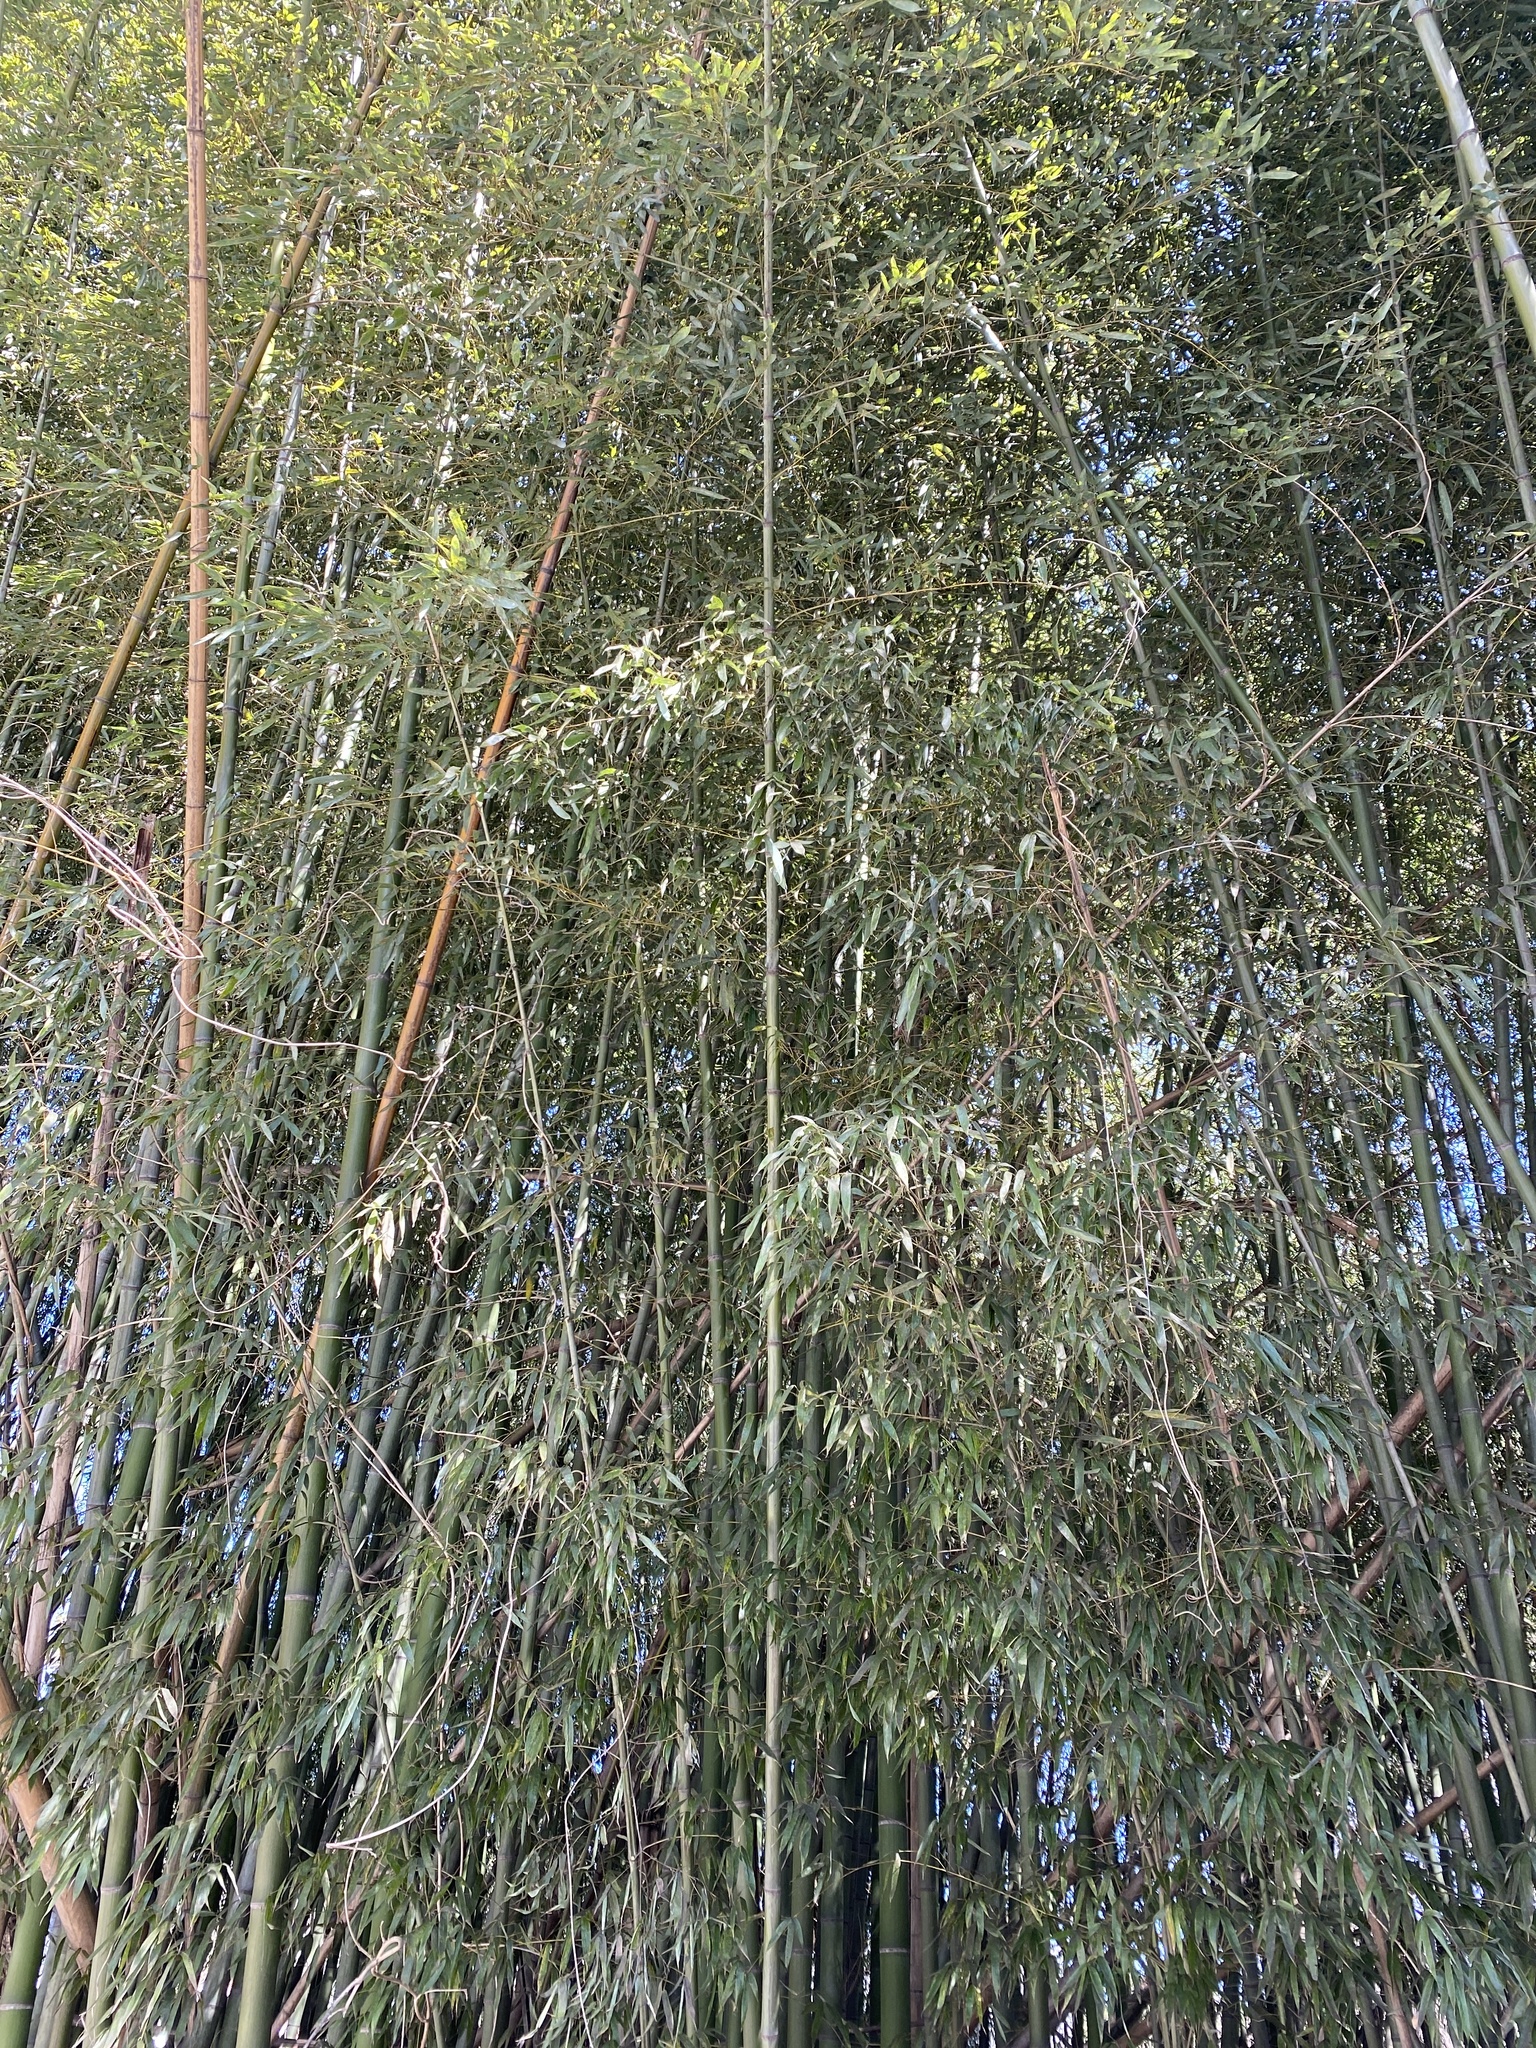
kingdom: Plantae
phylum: Tracheophyta
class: Liliopsida
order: Poales
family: Poaceae
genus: Phyllostachys
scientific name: Phyllostachys aurea
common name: Golden bamboo
